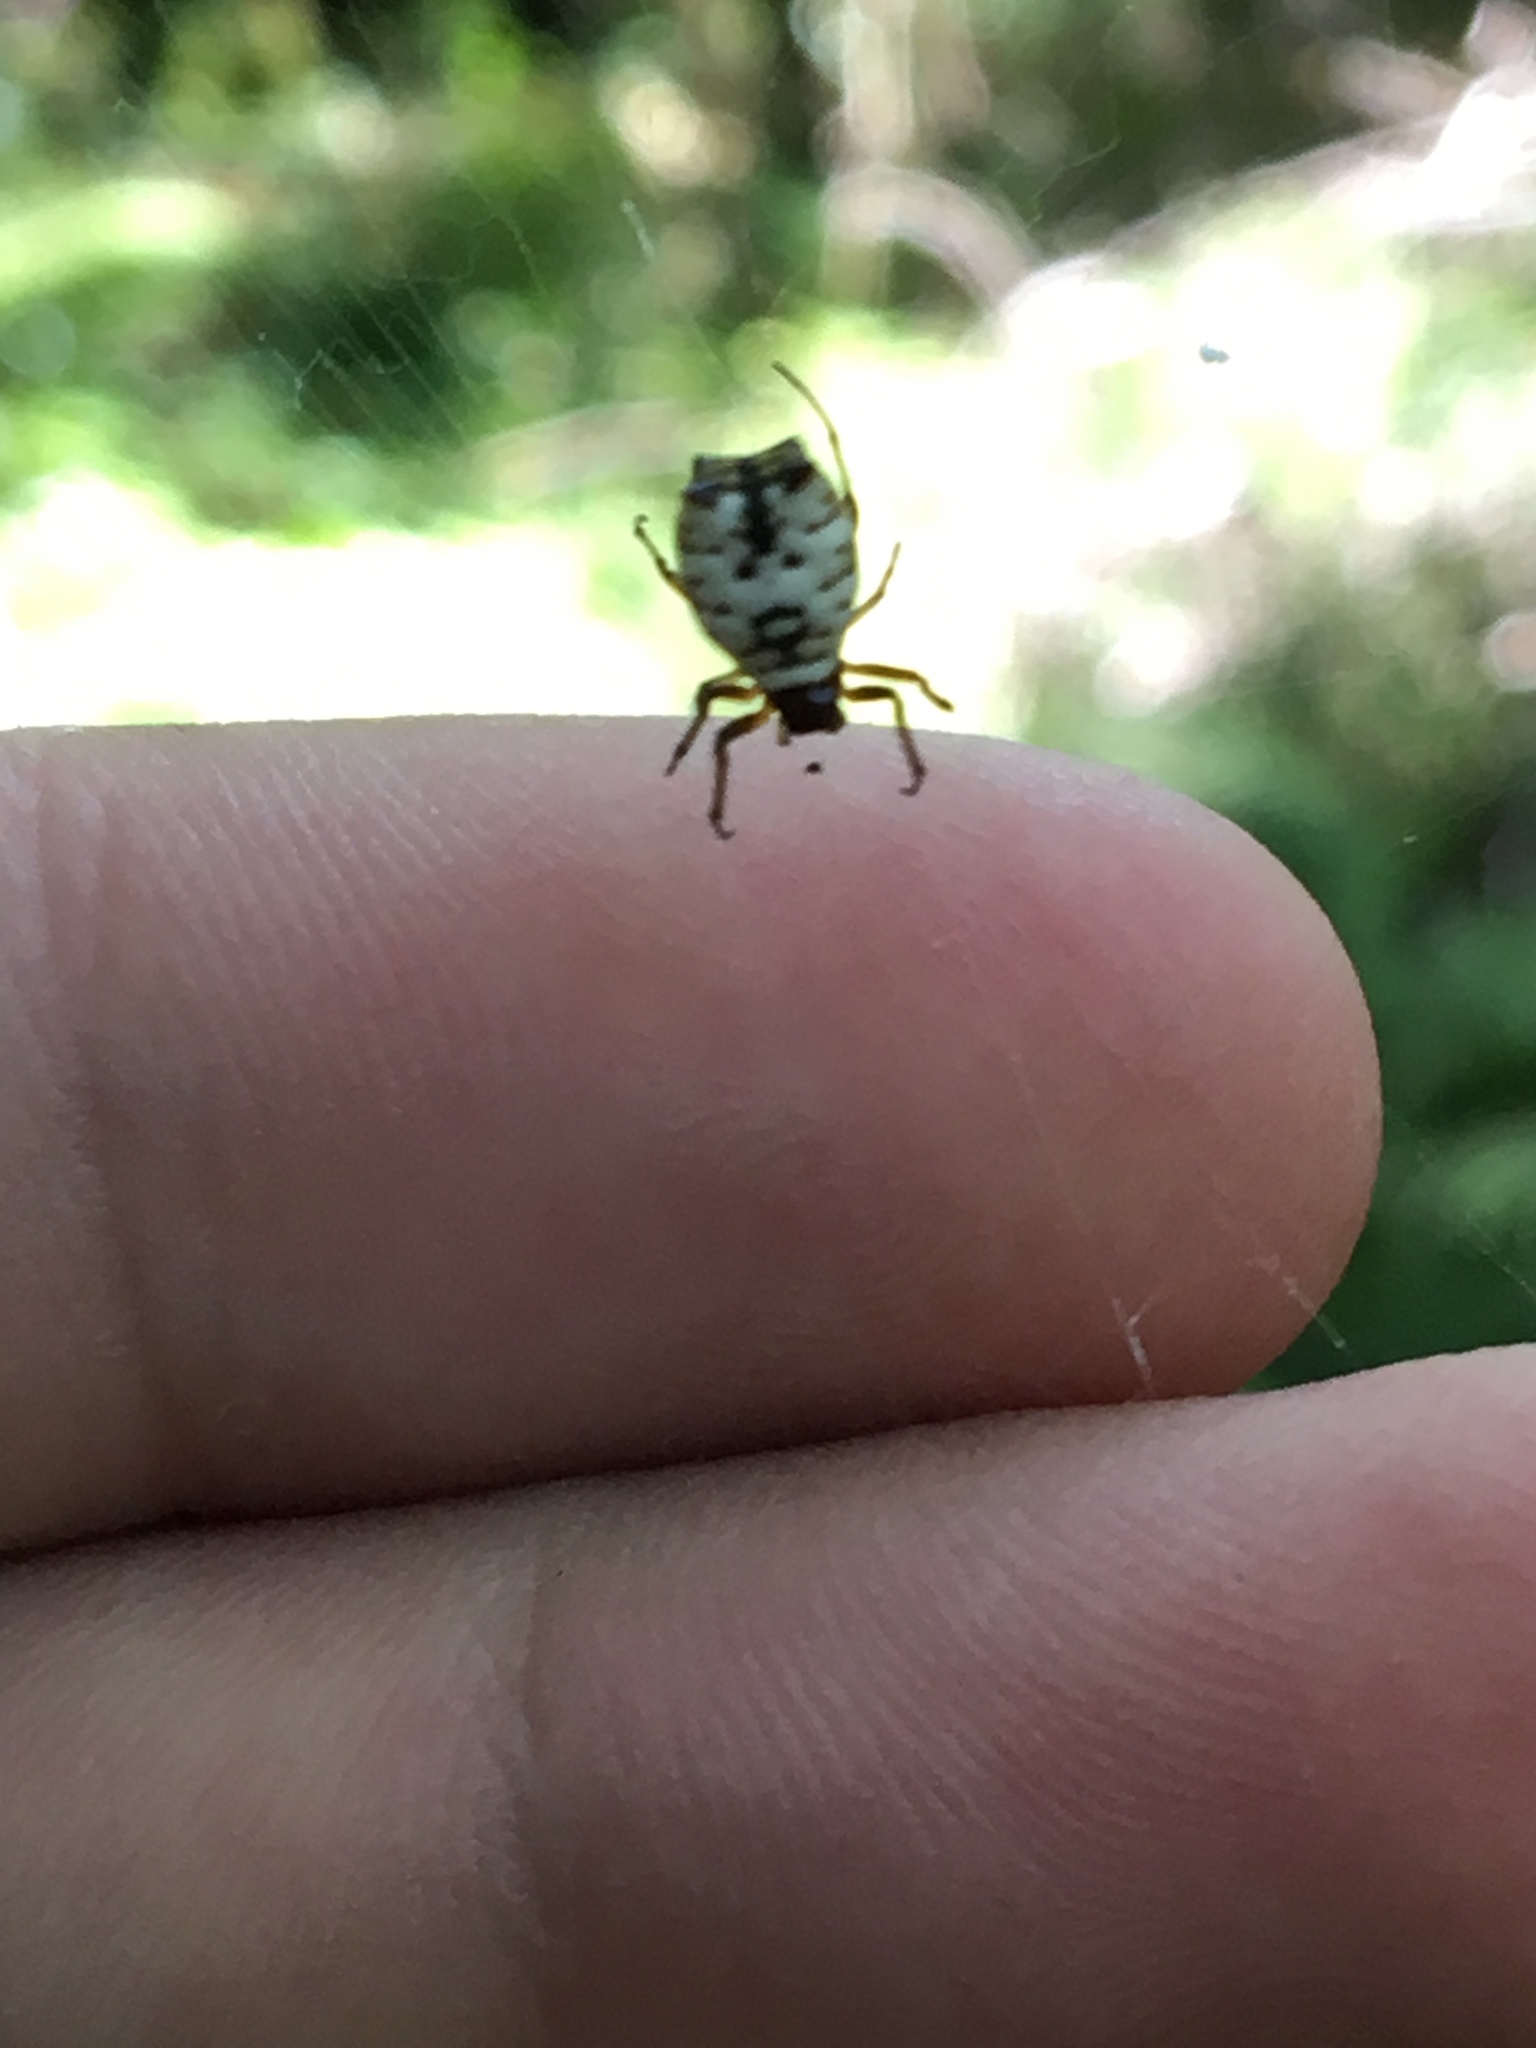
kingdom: Animalia
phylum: Arthropoda
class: Arachnida
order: Araneae
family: Araneidae
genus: Micrathena
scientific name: Micrathena mitrata
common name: Orb weavers
